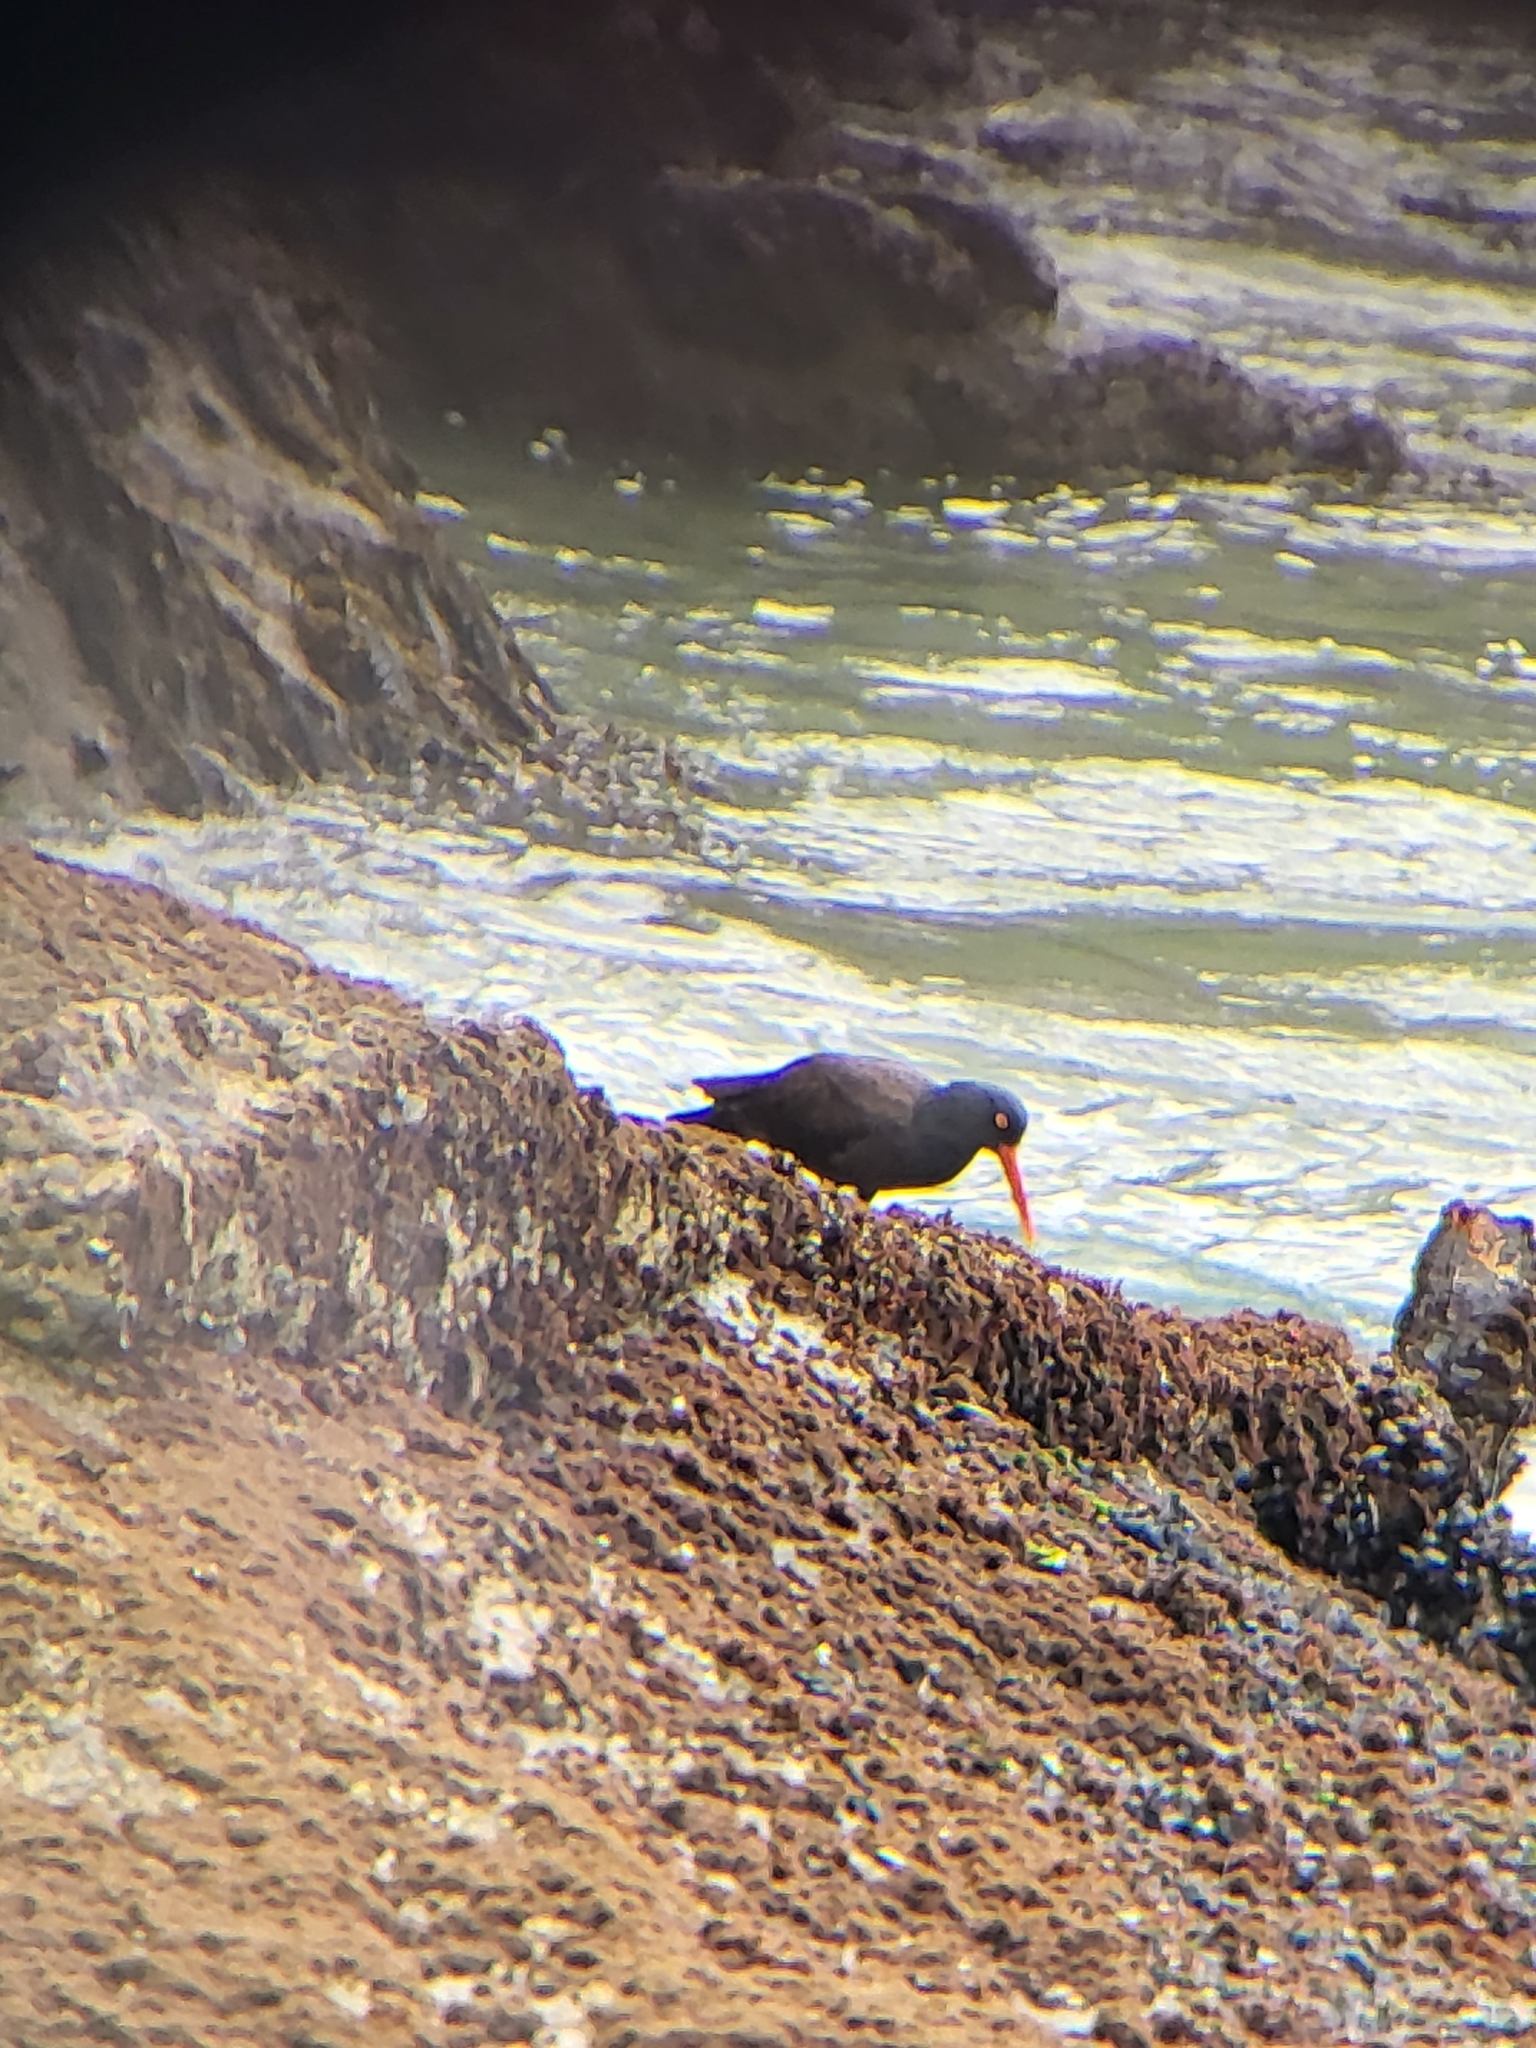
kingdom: Animalia
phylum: Chordata
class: Aves
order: Charadriiformes
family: Haematopodidae
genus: Haematopus
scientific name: Haematopus bachmani
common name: Black oystercatcher
